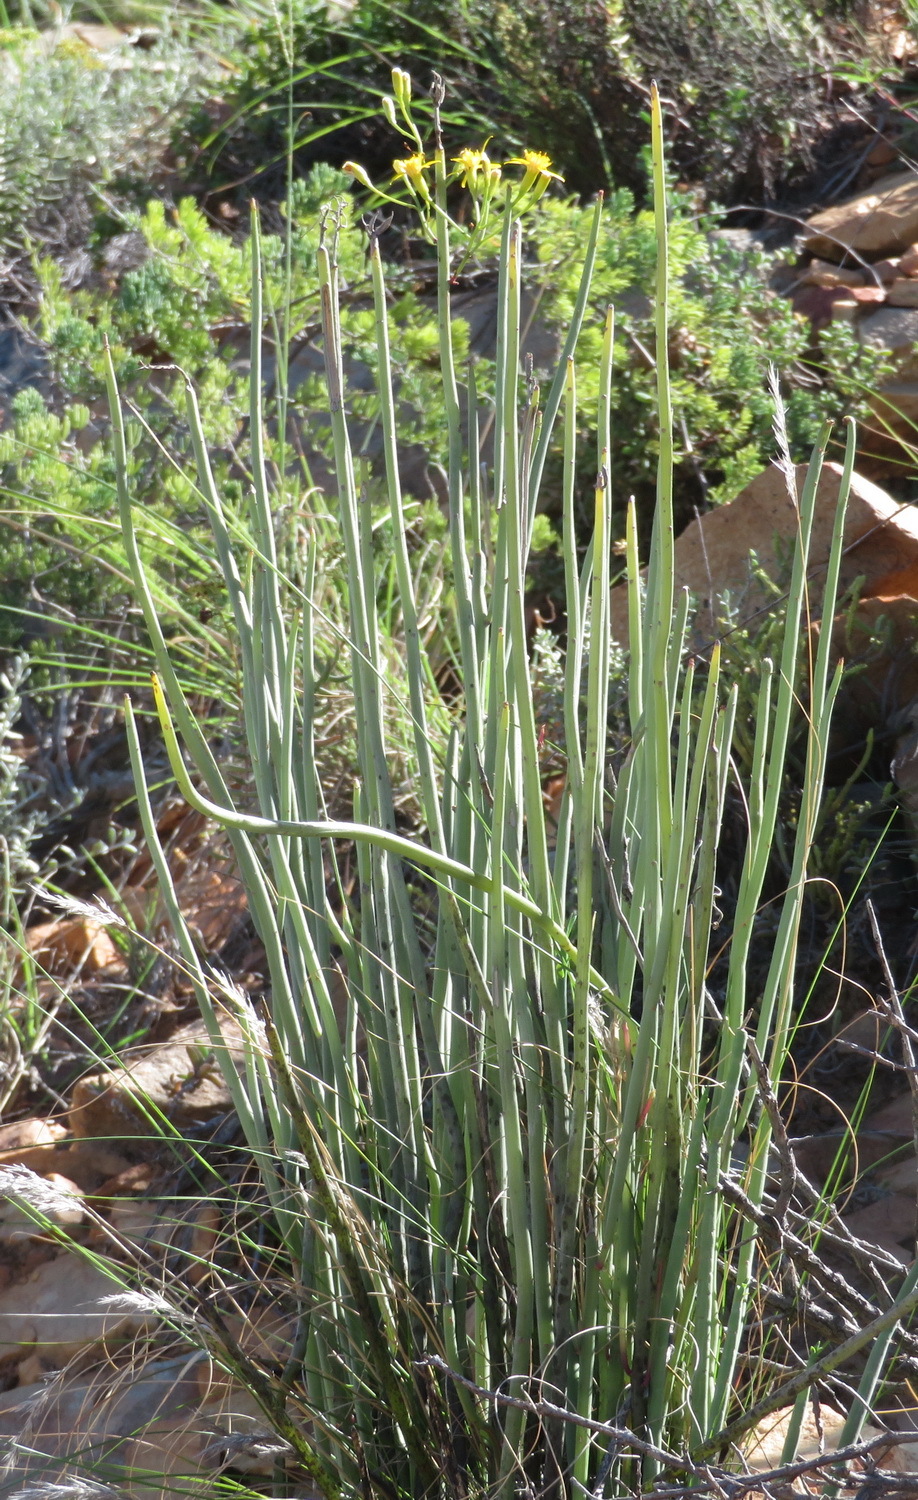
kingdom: Plantae
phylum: Tracheophyta
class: Magnoliopsida
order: Asterales
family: Asteraceae
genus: Senecio
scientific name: Senecio junceus
